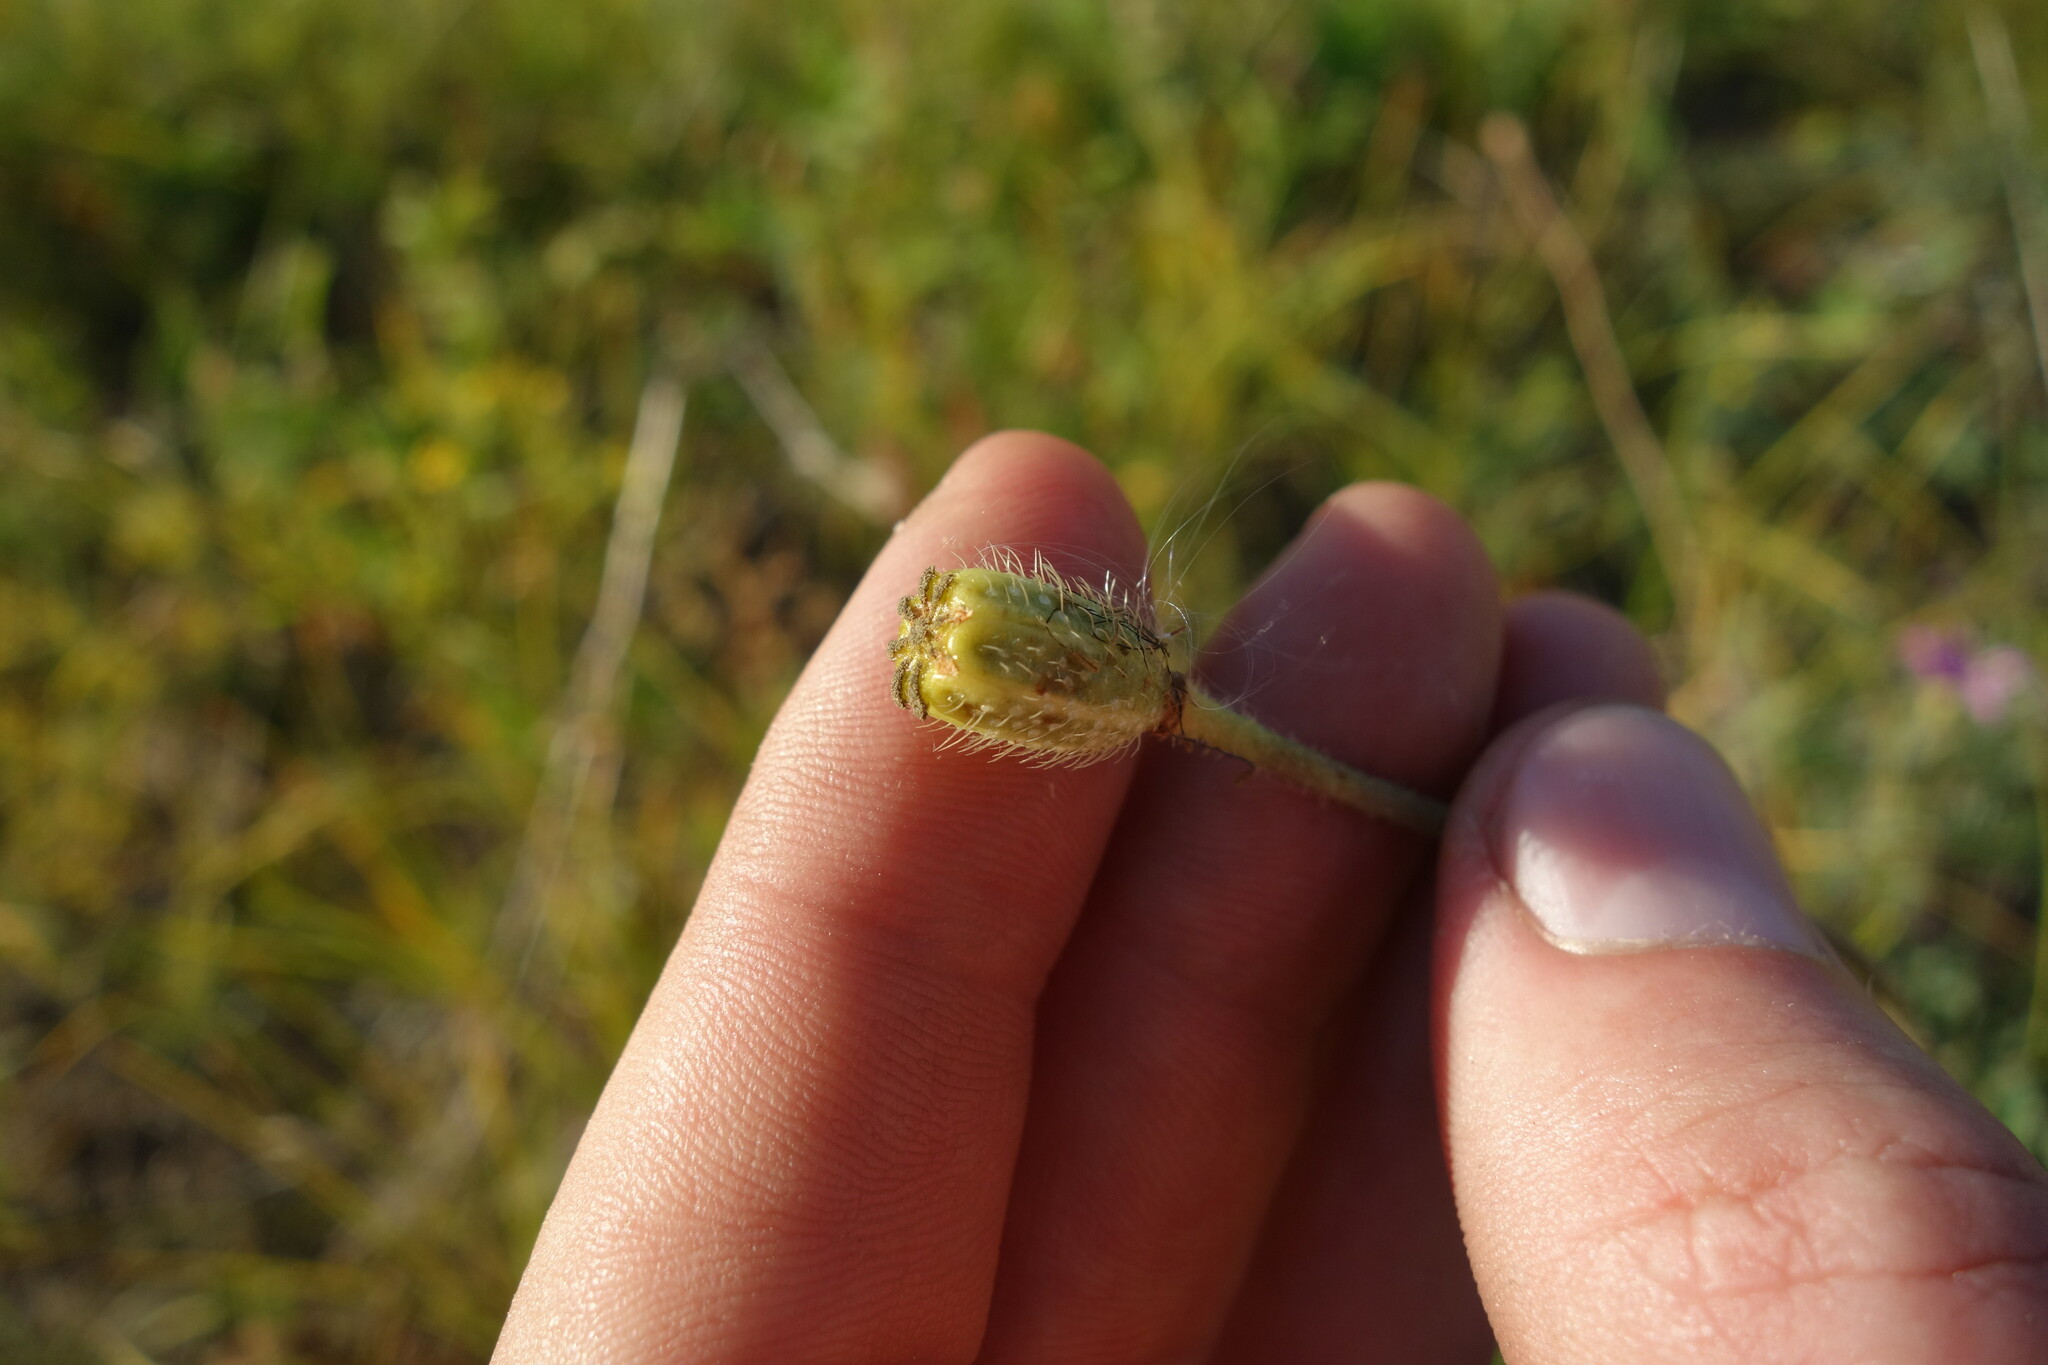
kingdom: Plantae
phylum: Tracheophyta
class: Magnoliopsida
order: Ranunculales
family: Papaveraceae
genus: Papaver
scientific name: Papaver nudicaule
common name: Arctic poppy
